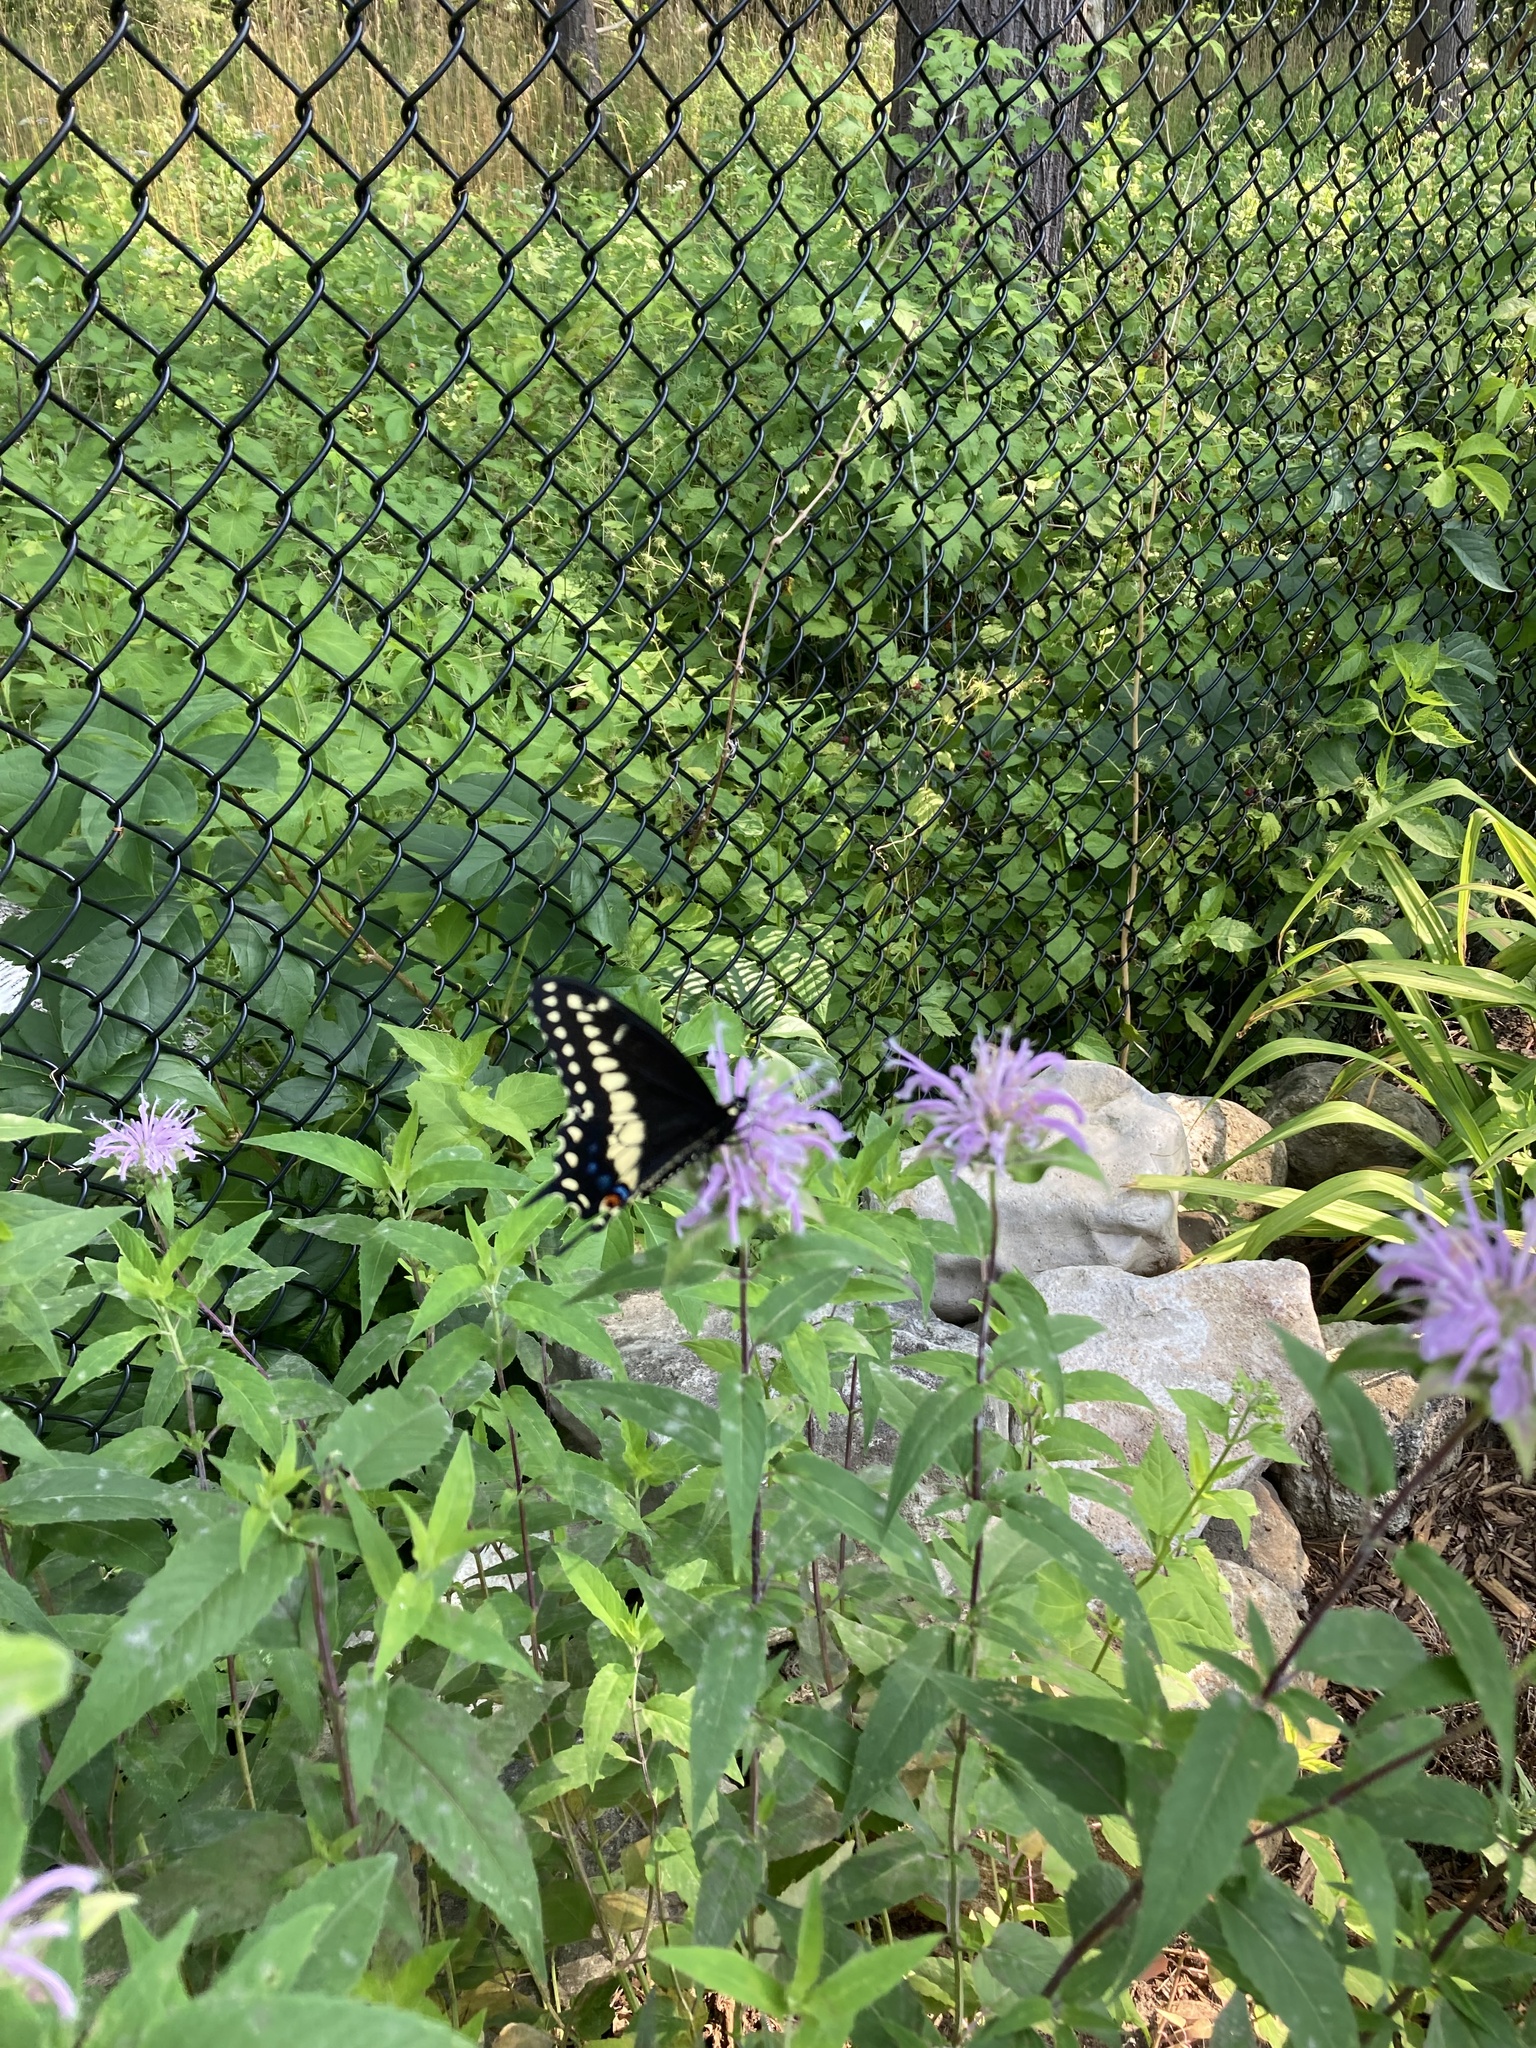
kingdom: Animalia
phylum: Arthropoda
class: Insecta
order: Lepidoptera
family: Papilionidae
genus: Papilio
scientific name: Papilio polyxenes
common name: Black swallowtail
